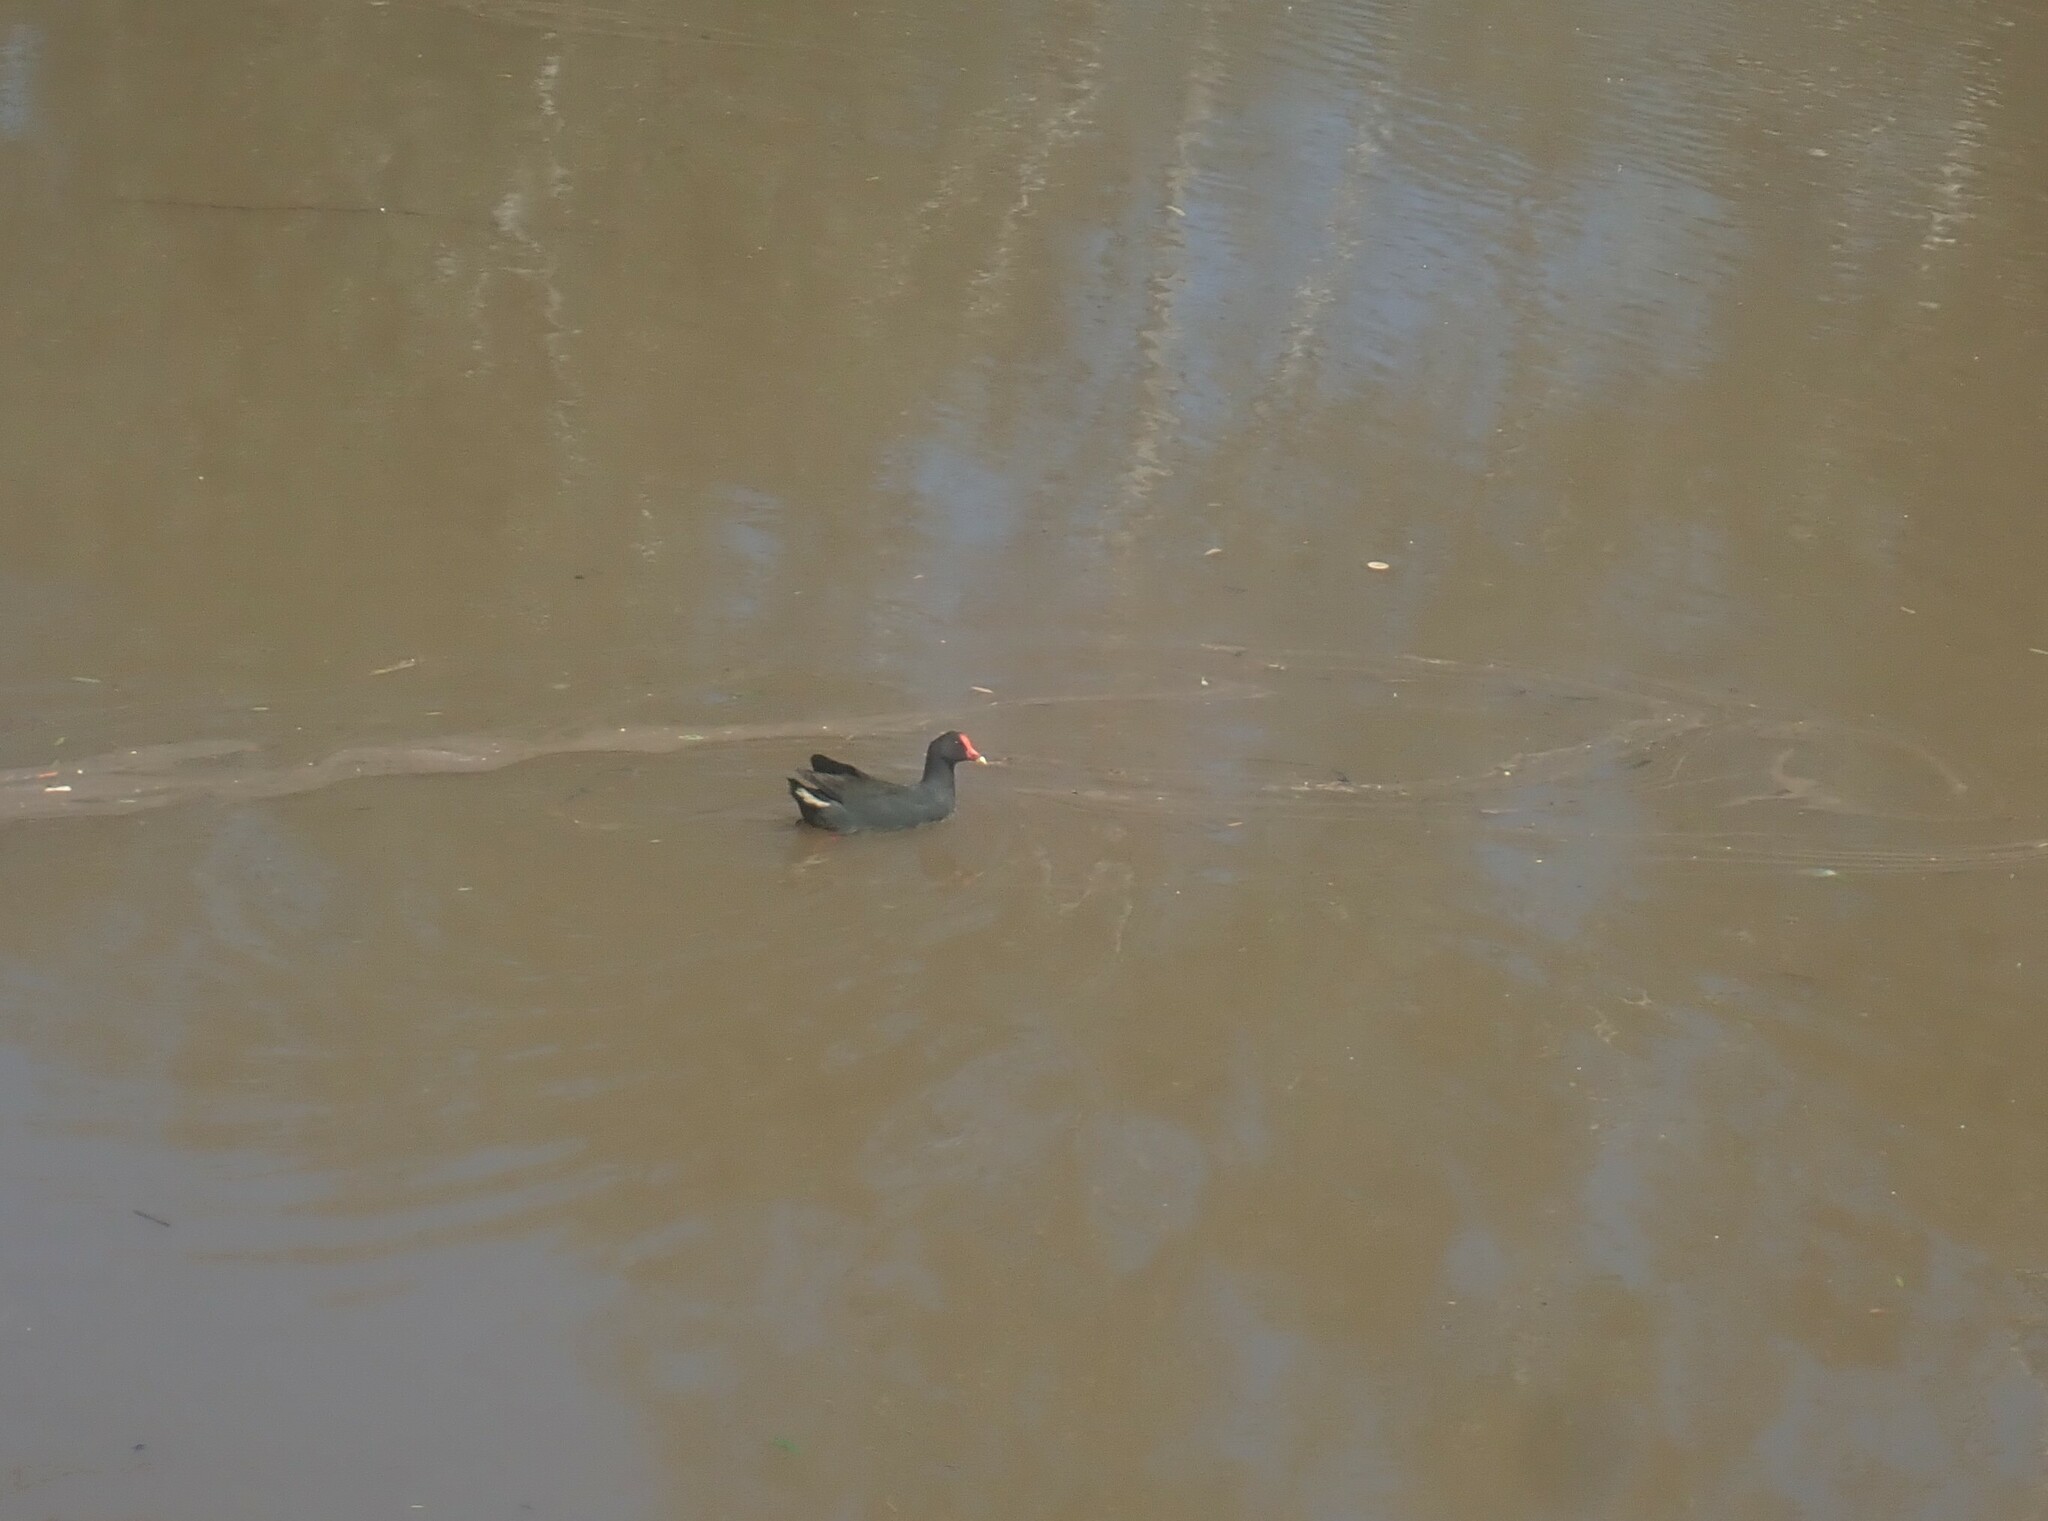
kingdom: Animalia
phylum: Chordata
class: Aves
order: Gruiformes
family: Rallidae
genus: Gallinula
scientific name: Gallinula tenebrosa
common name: Dusky moorhen
